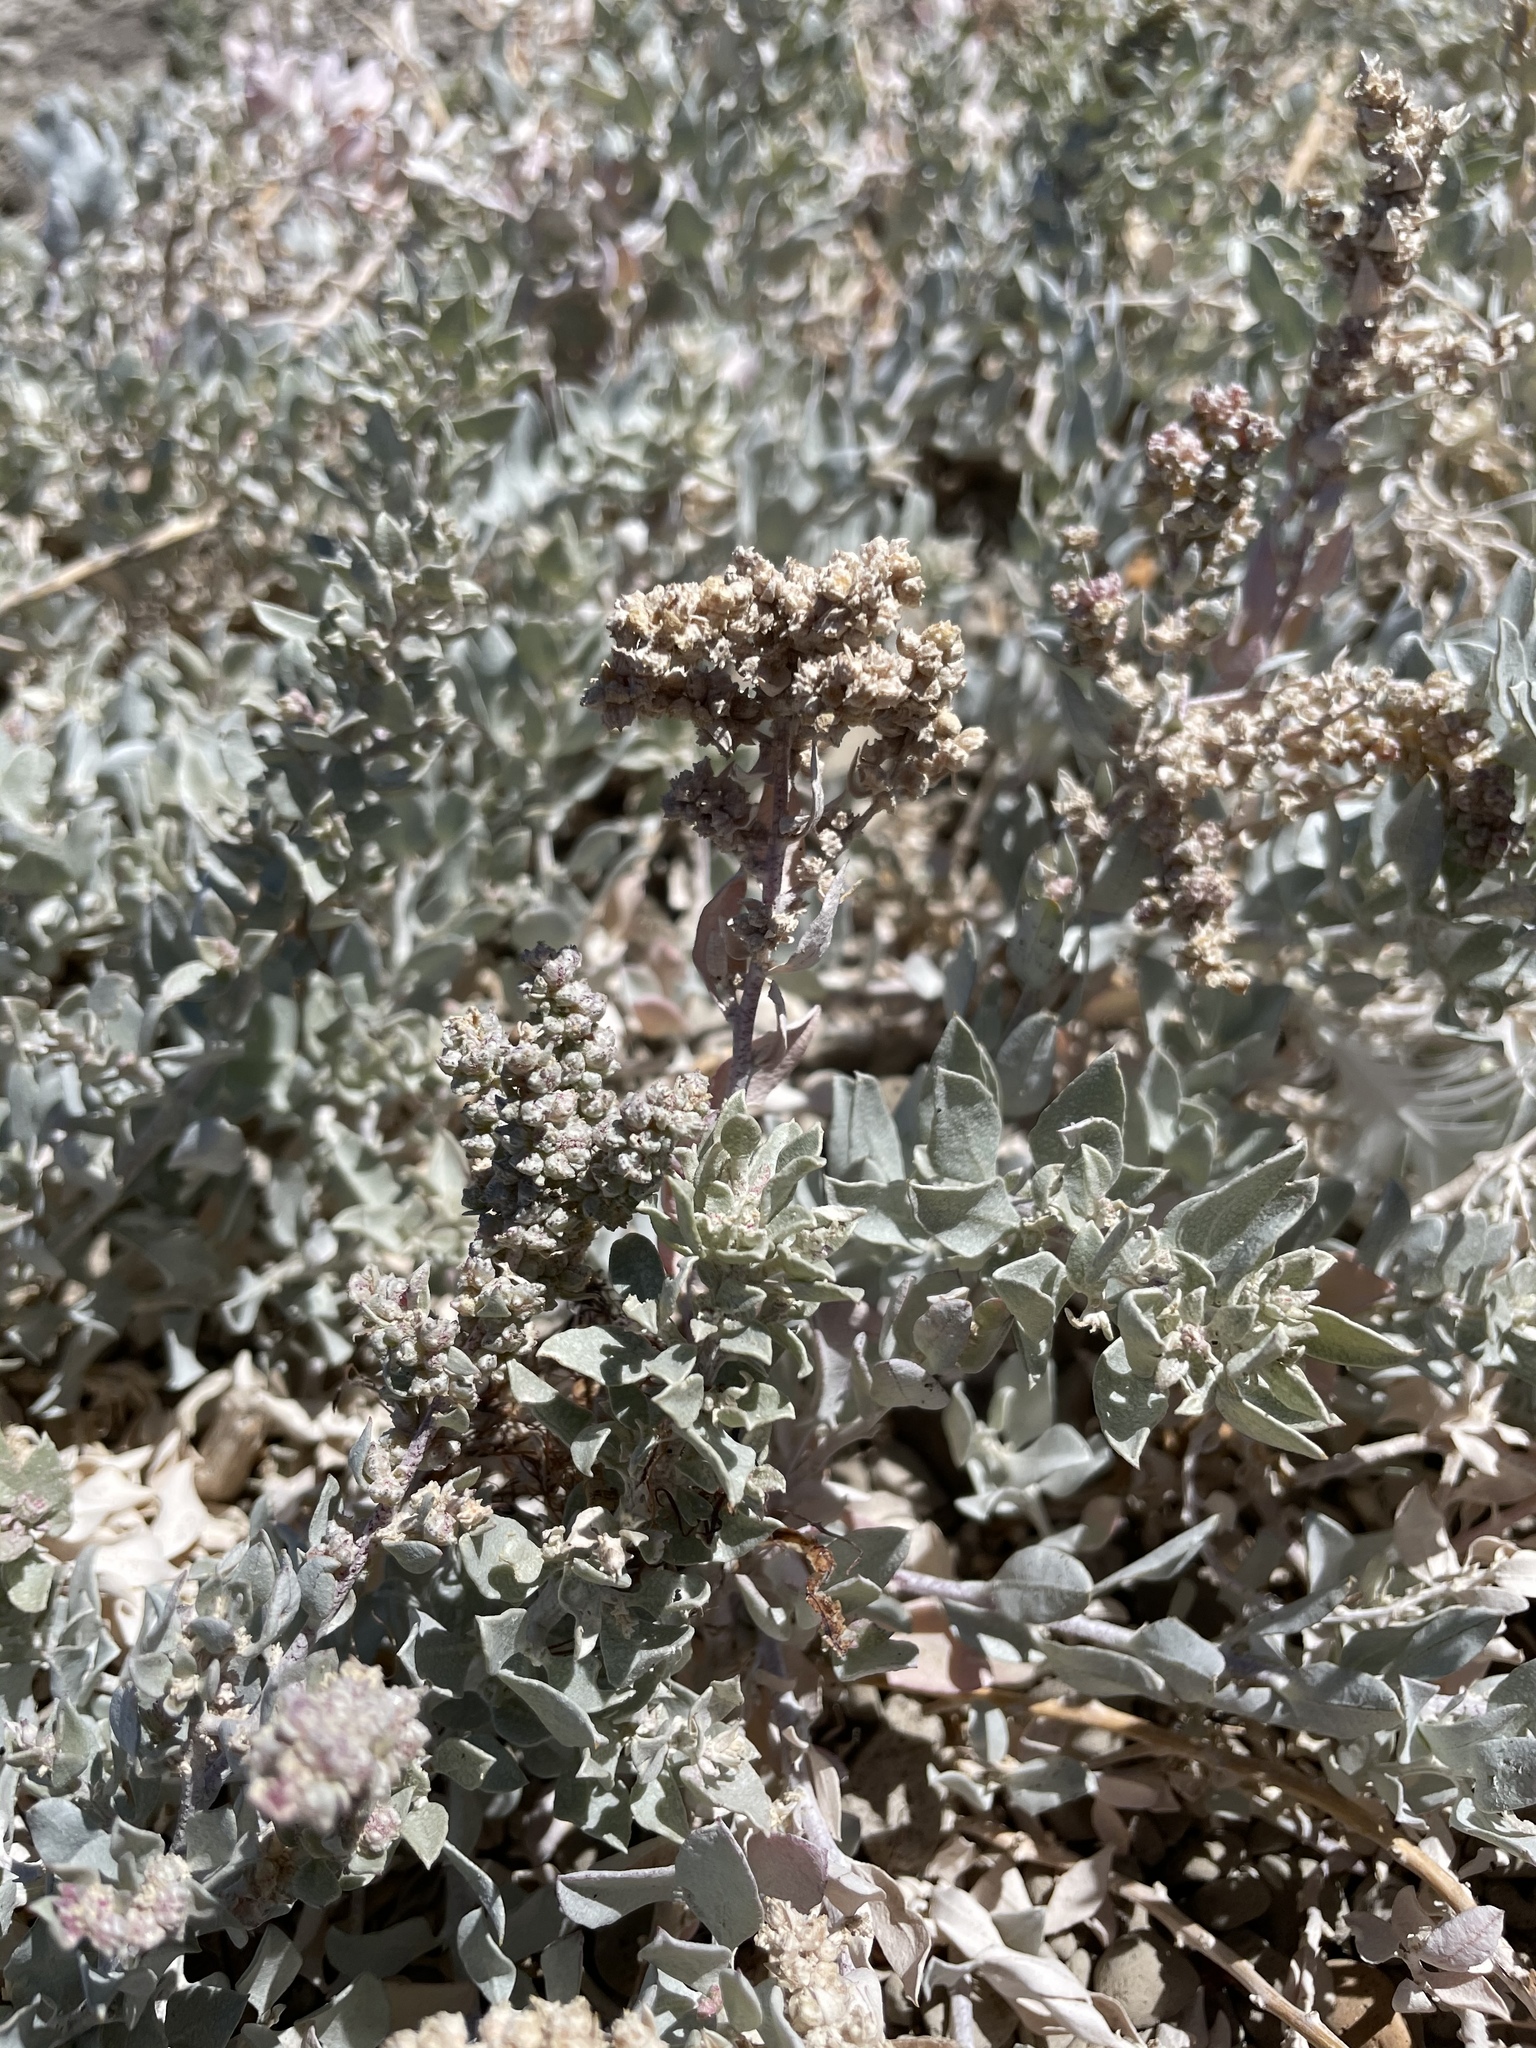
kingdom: Plantae
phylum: Tracheophyta
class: Magnoliopsida
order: Caryophyllales
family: Amaranthaceae
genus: Atriplex
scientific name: Atriplex barclayana
